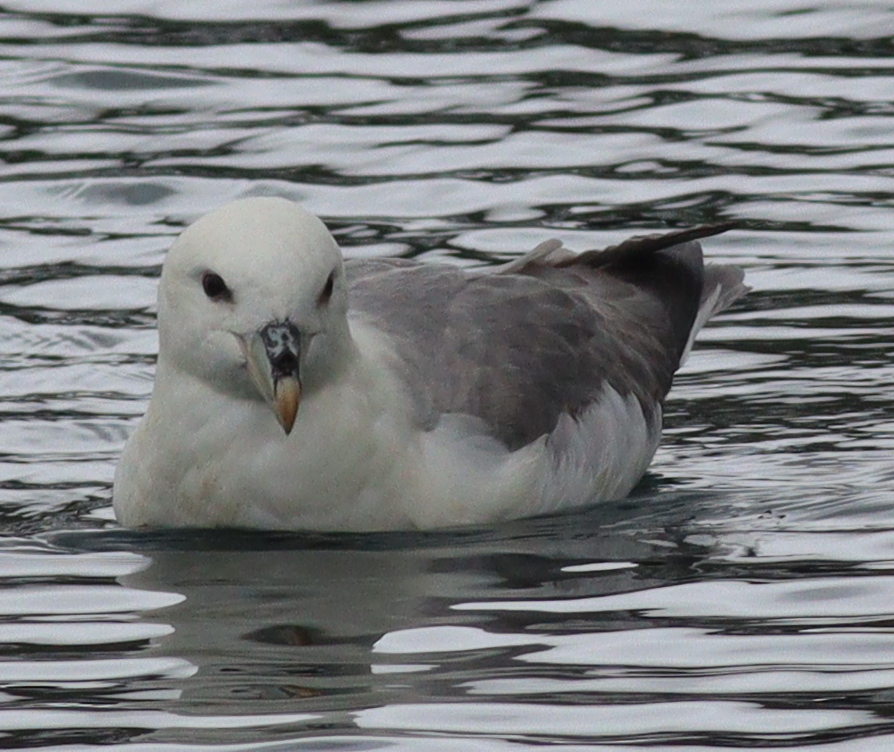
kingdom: Animalia
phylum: Chordata
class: Aves
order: Procellariiformes
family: Procellariidae
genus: Fulmarus
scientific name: Fulmarus glacialis
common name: Northern fulmar
